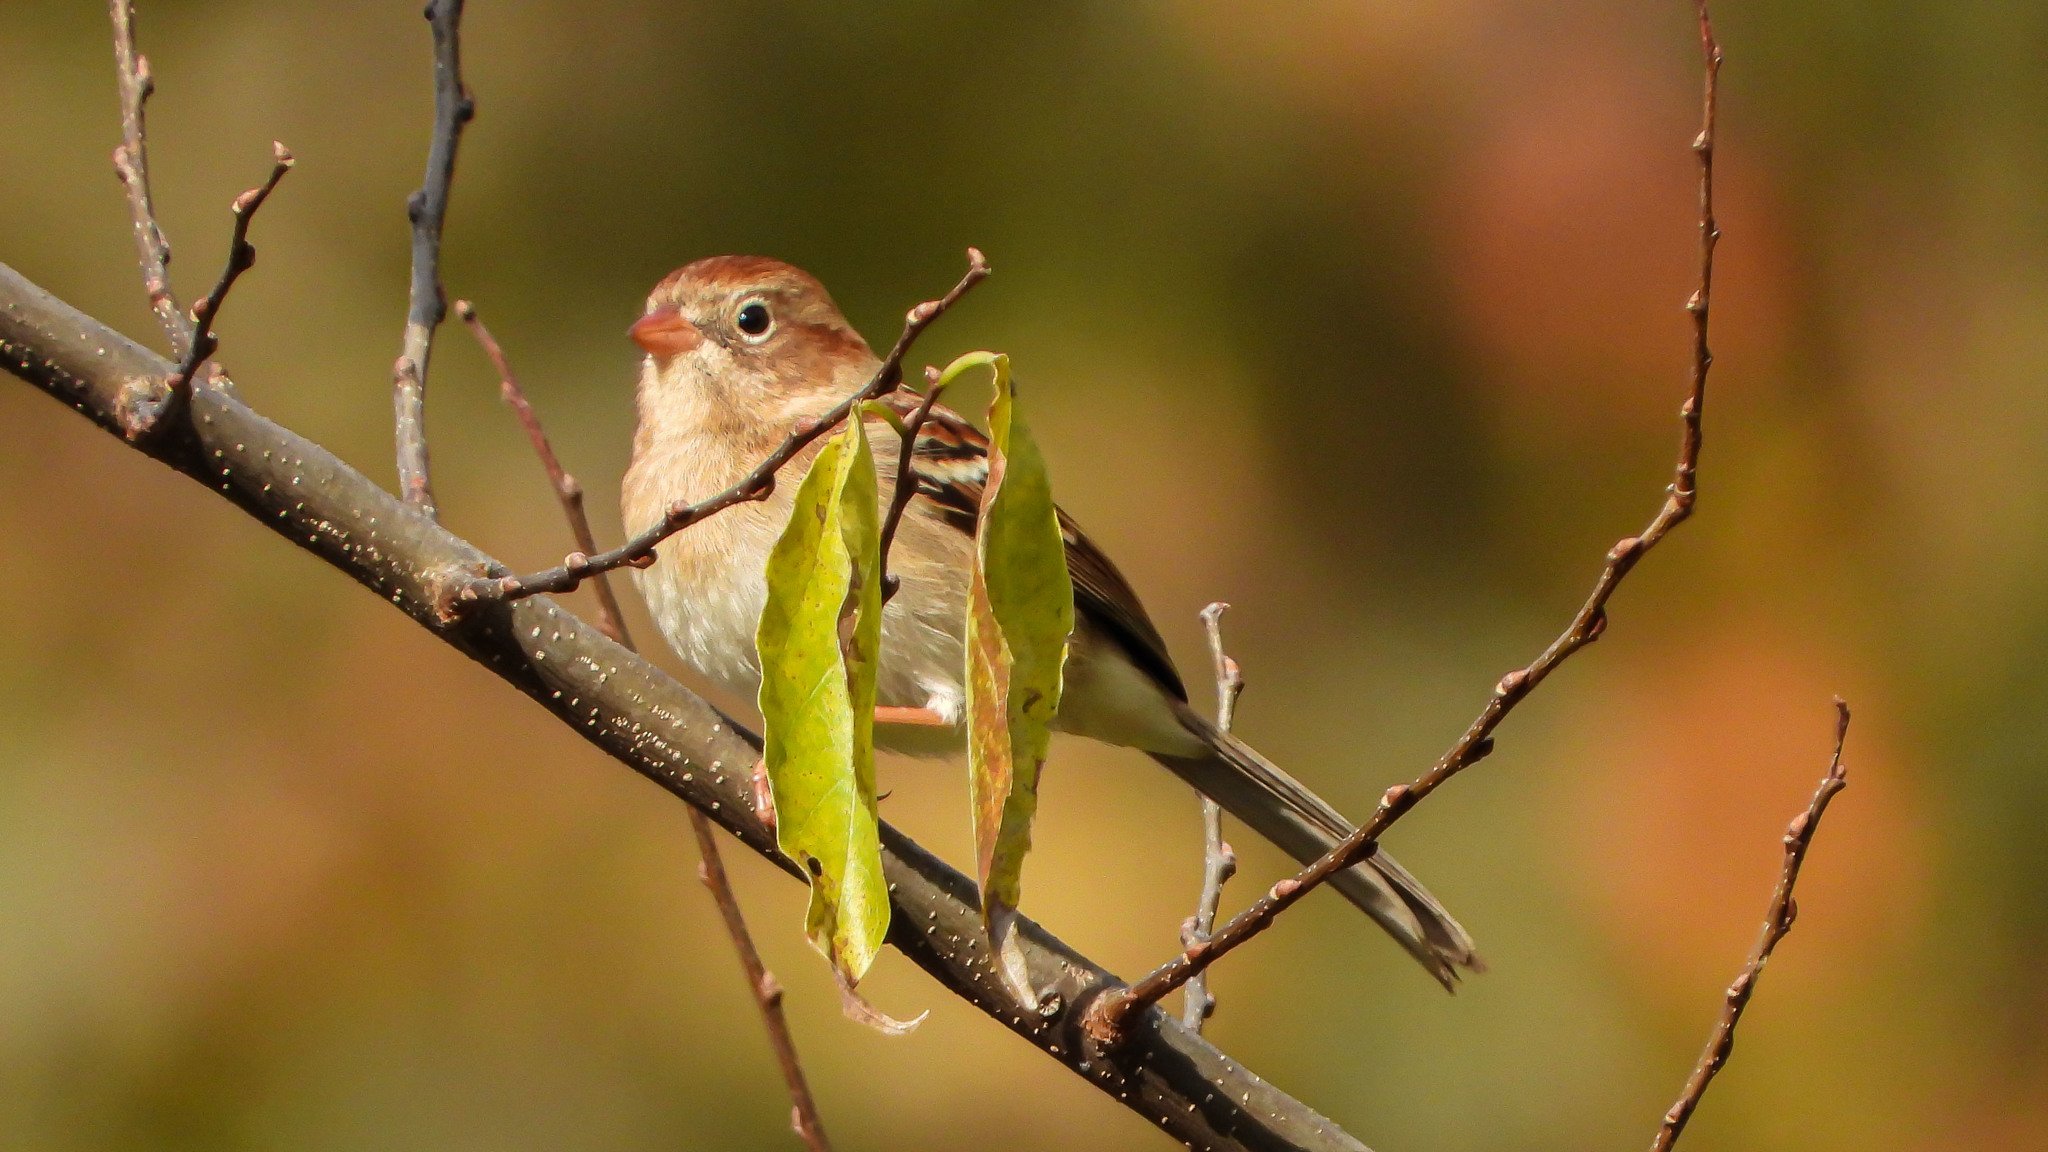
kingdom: Animalia
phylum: Chordata
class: Aves
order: Passeriformes
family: Passerellidae
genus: Spizella
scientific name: Spizella pusilla
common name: Field sparrow
